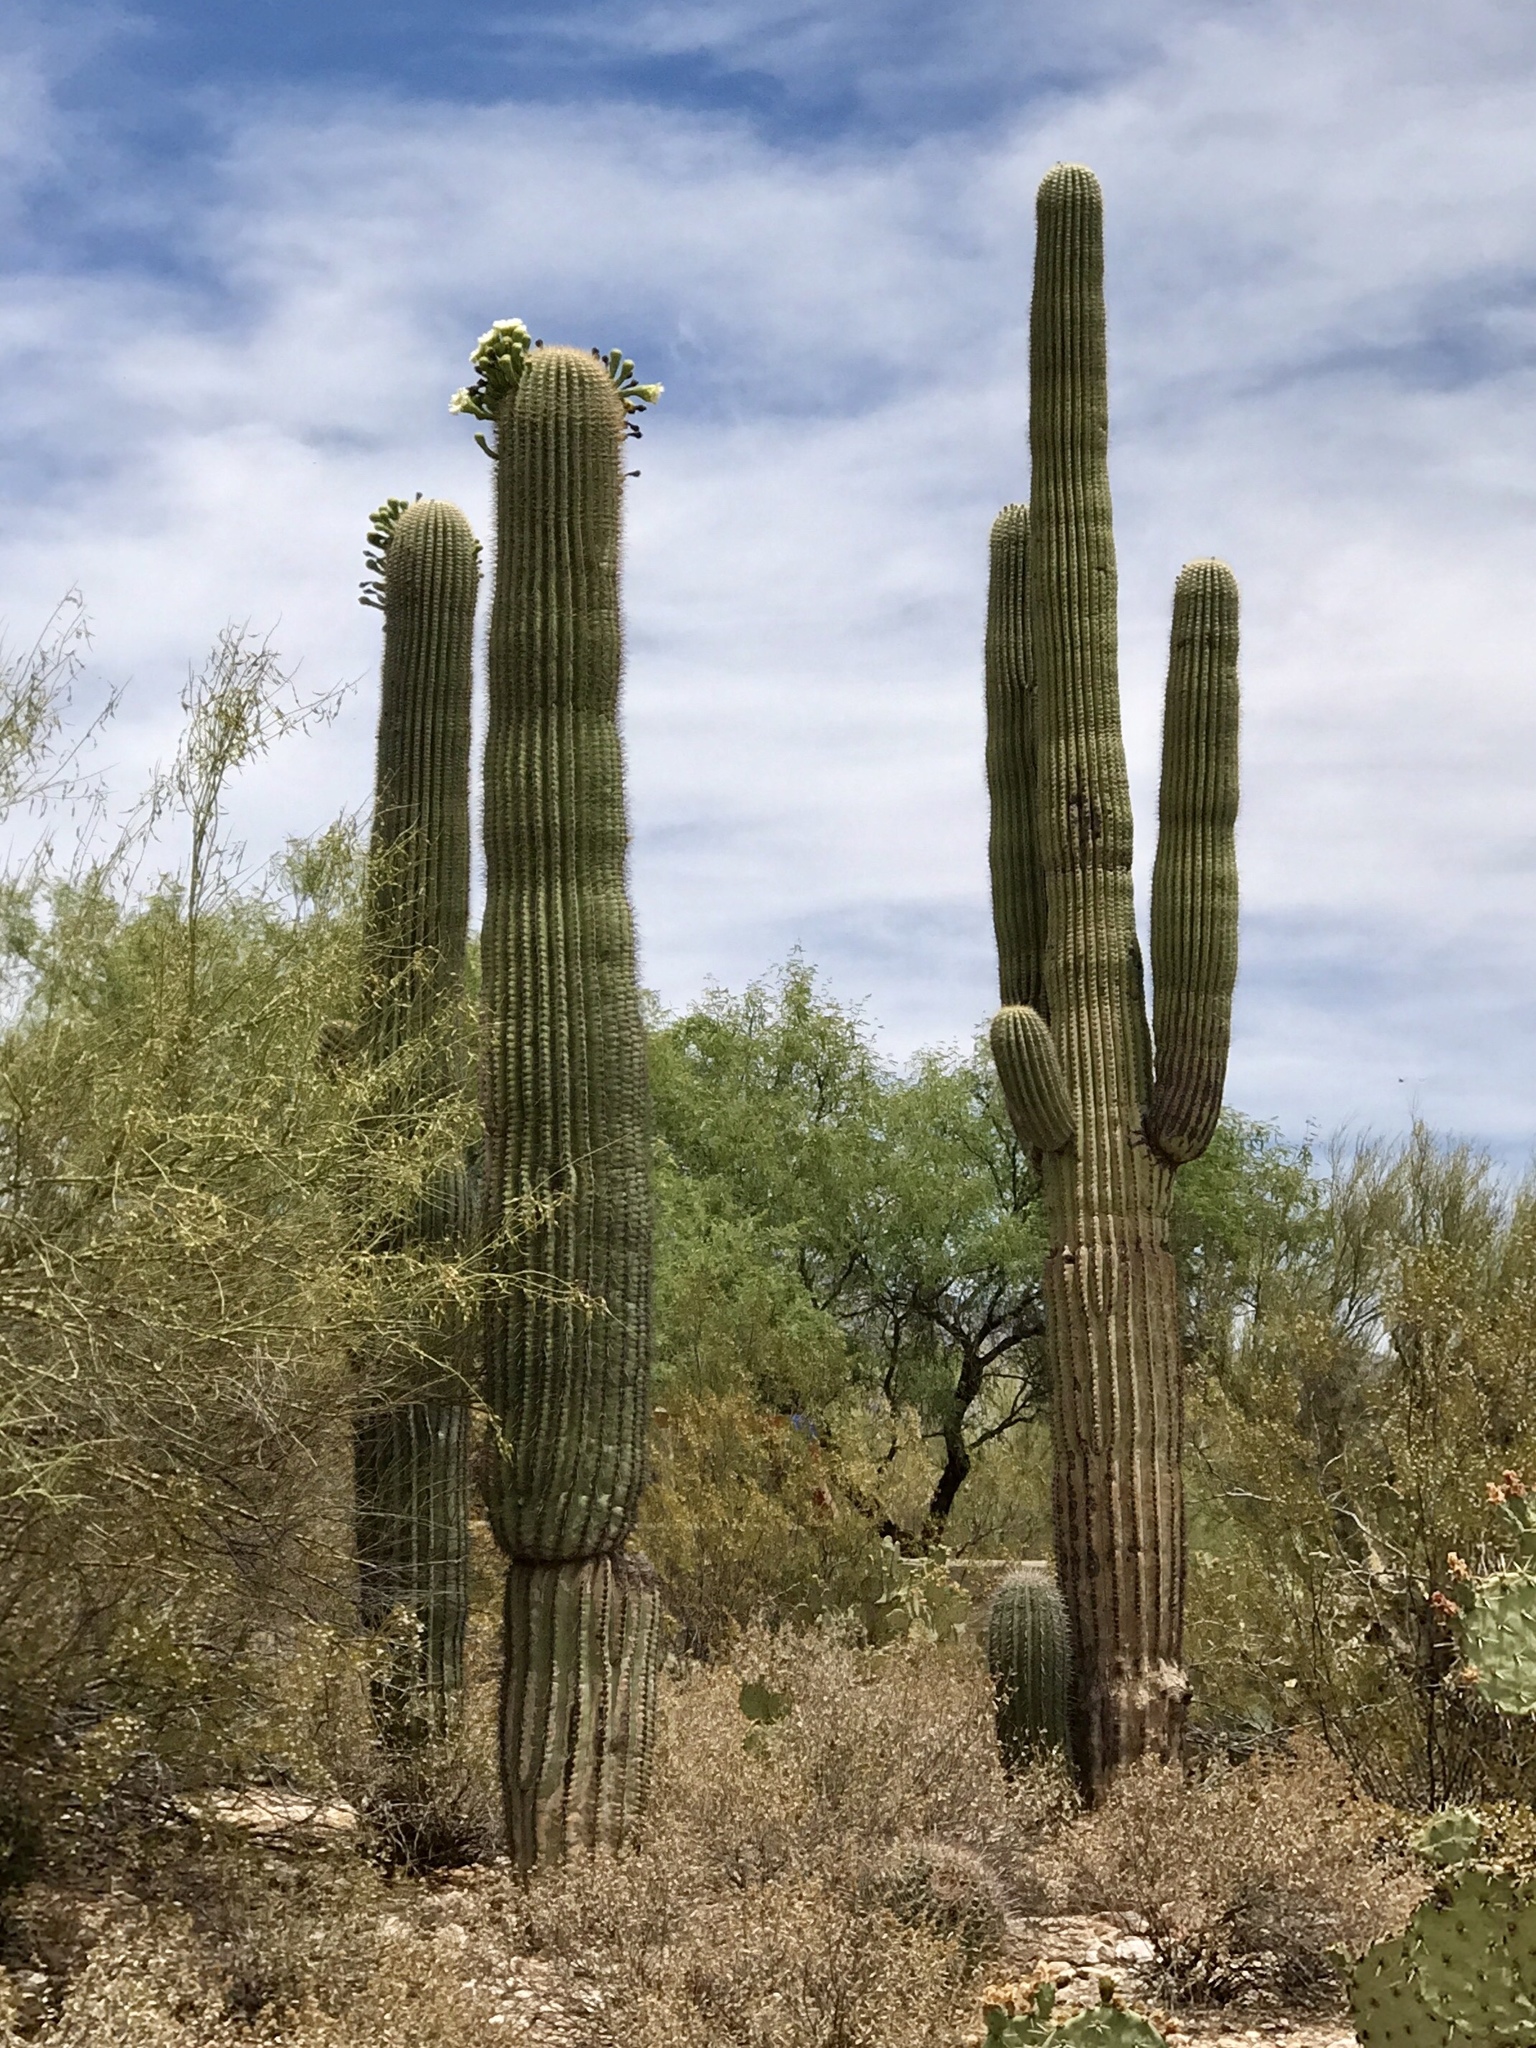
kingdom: Plantae
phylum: Tracheophyta
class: Magnoliopsida
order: Caryophyllales
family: Cactaceae
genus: Carnegiea
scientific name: Carnegiea gigantea
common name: Saguaro
